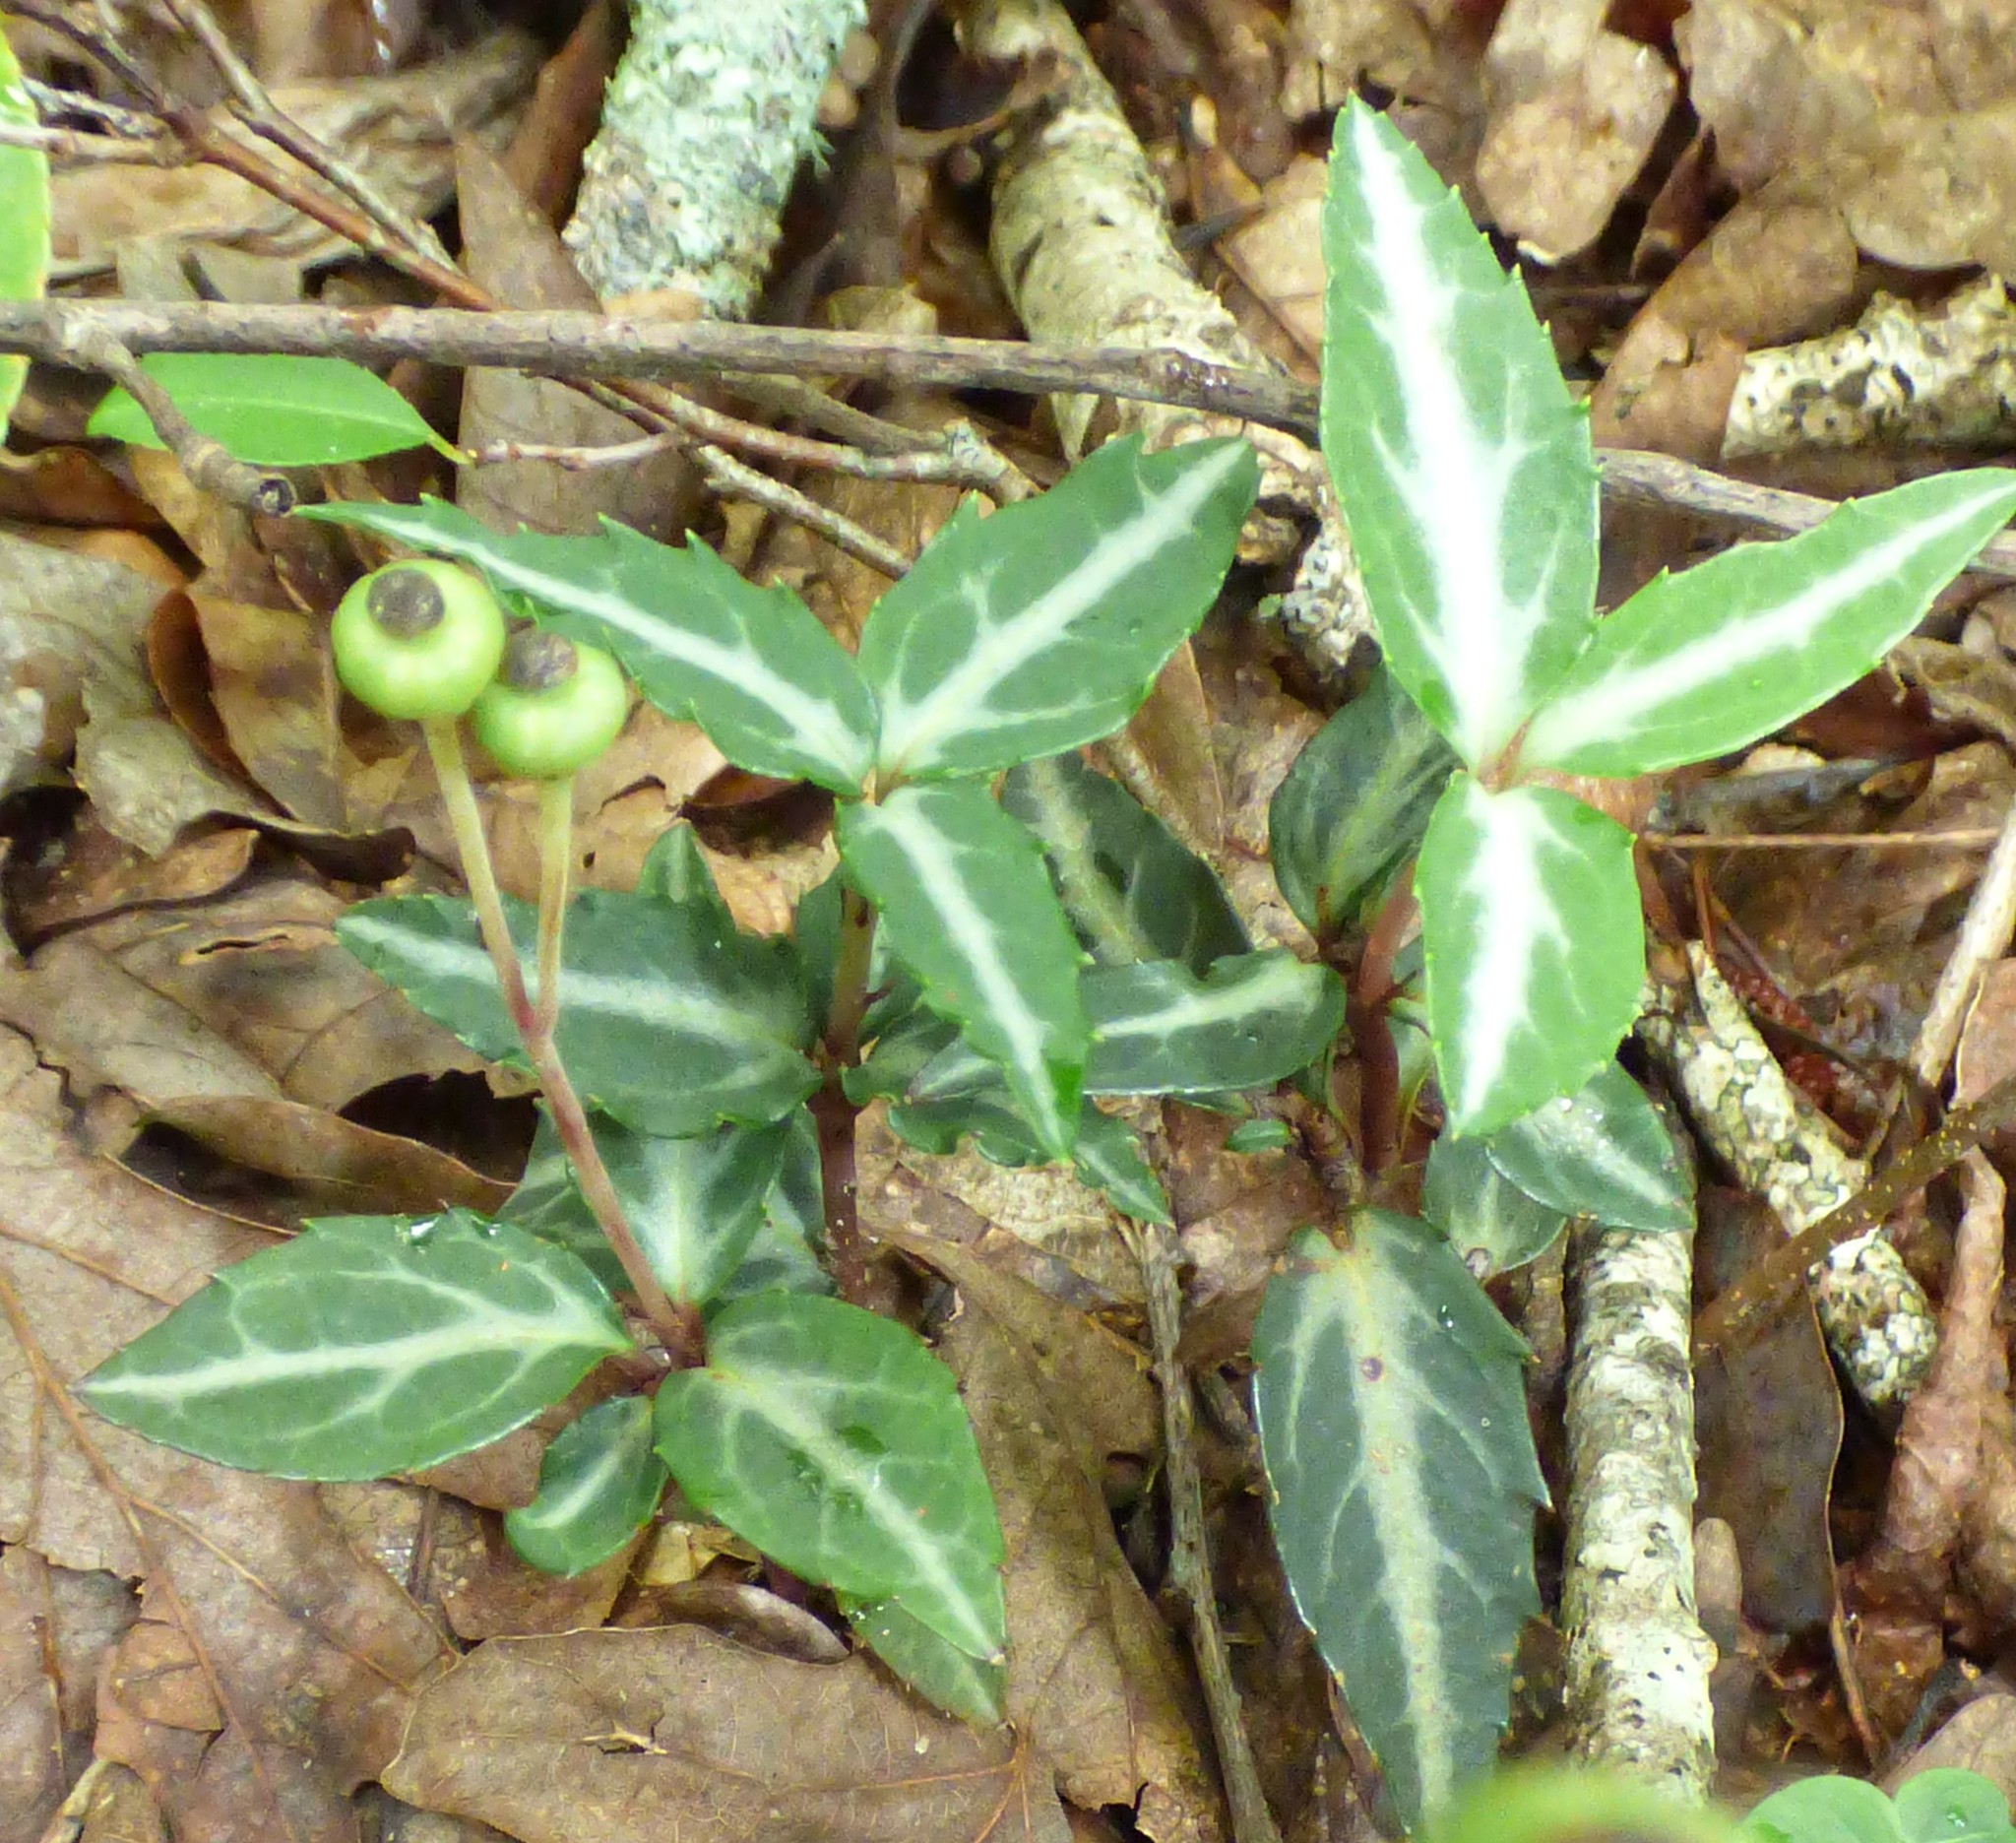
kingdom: Plantae
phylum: Tracheophyta
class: Magnoliopsida
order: Ericales
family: Ericaceae
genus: Chimaphila
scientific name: Chimaphila maculata
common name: Spotted pipsissewa
